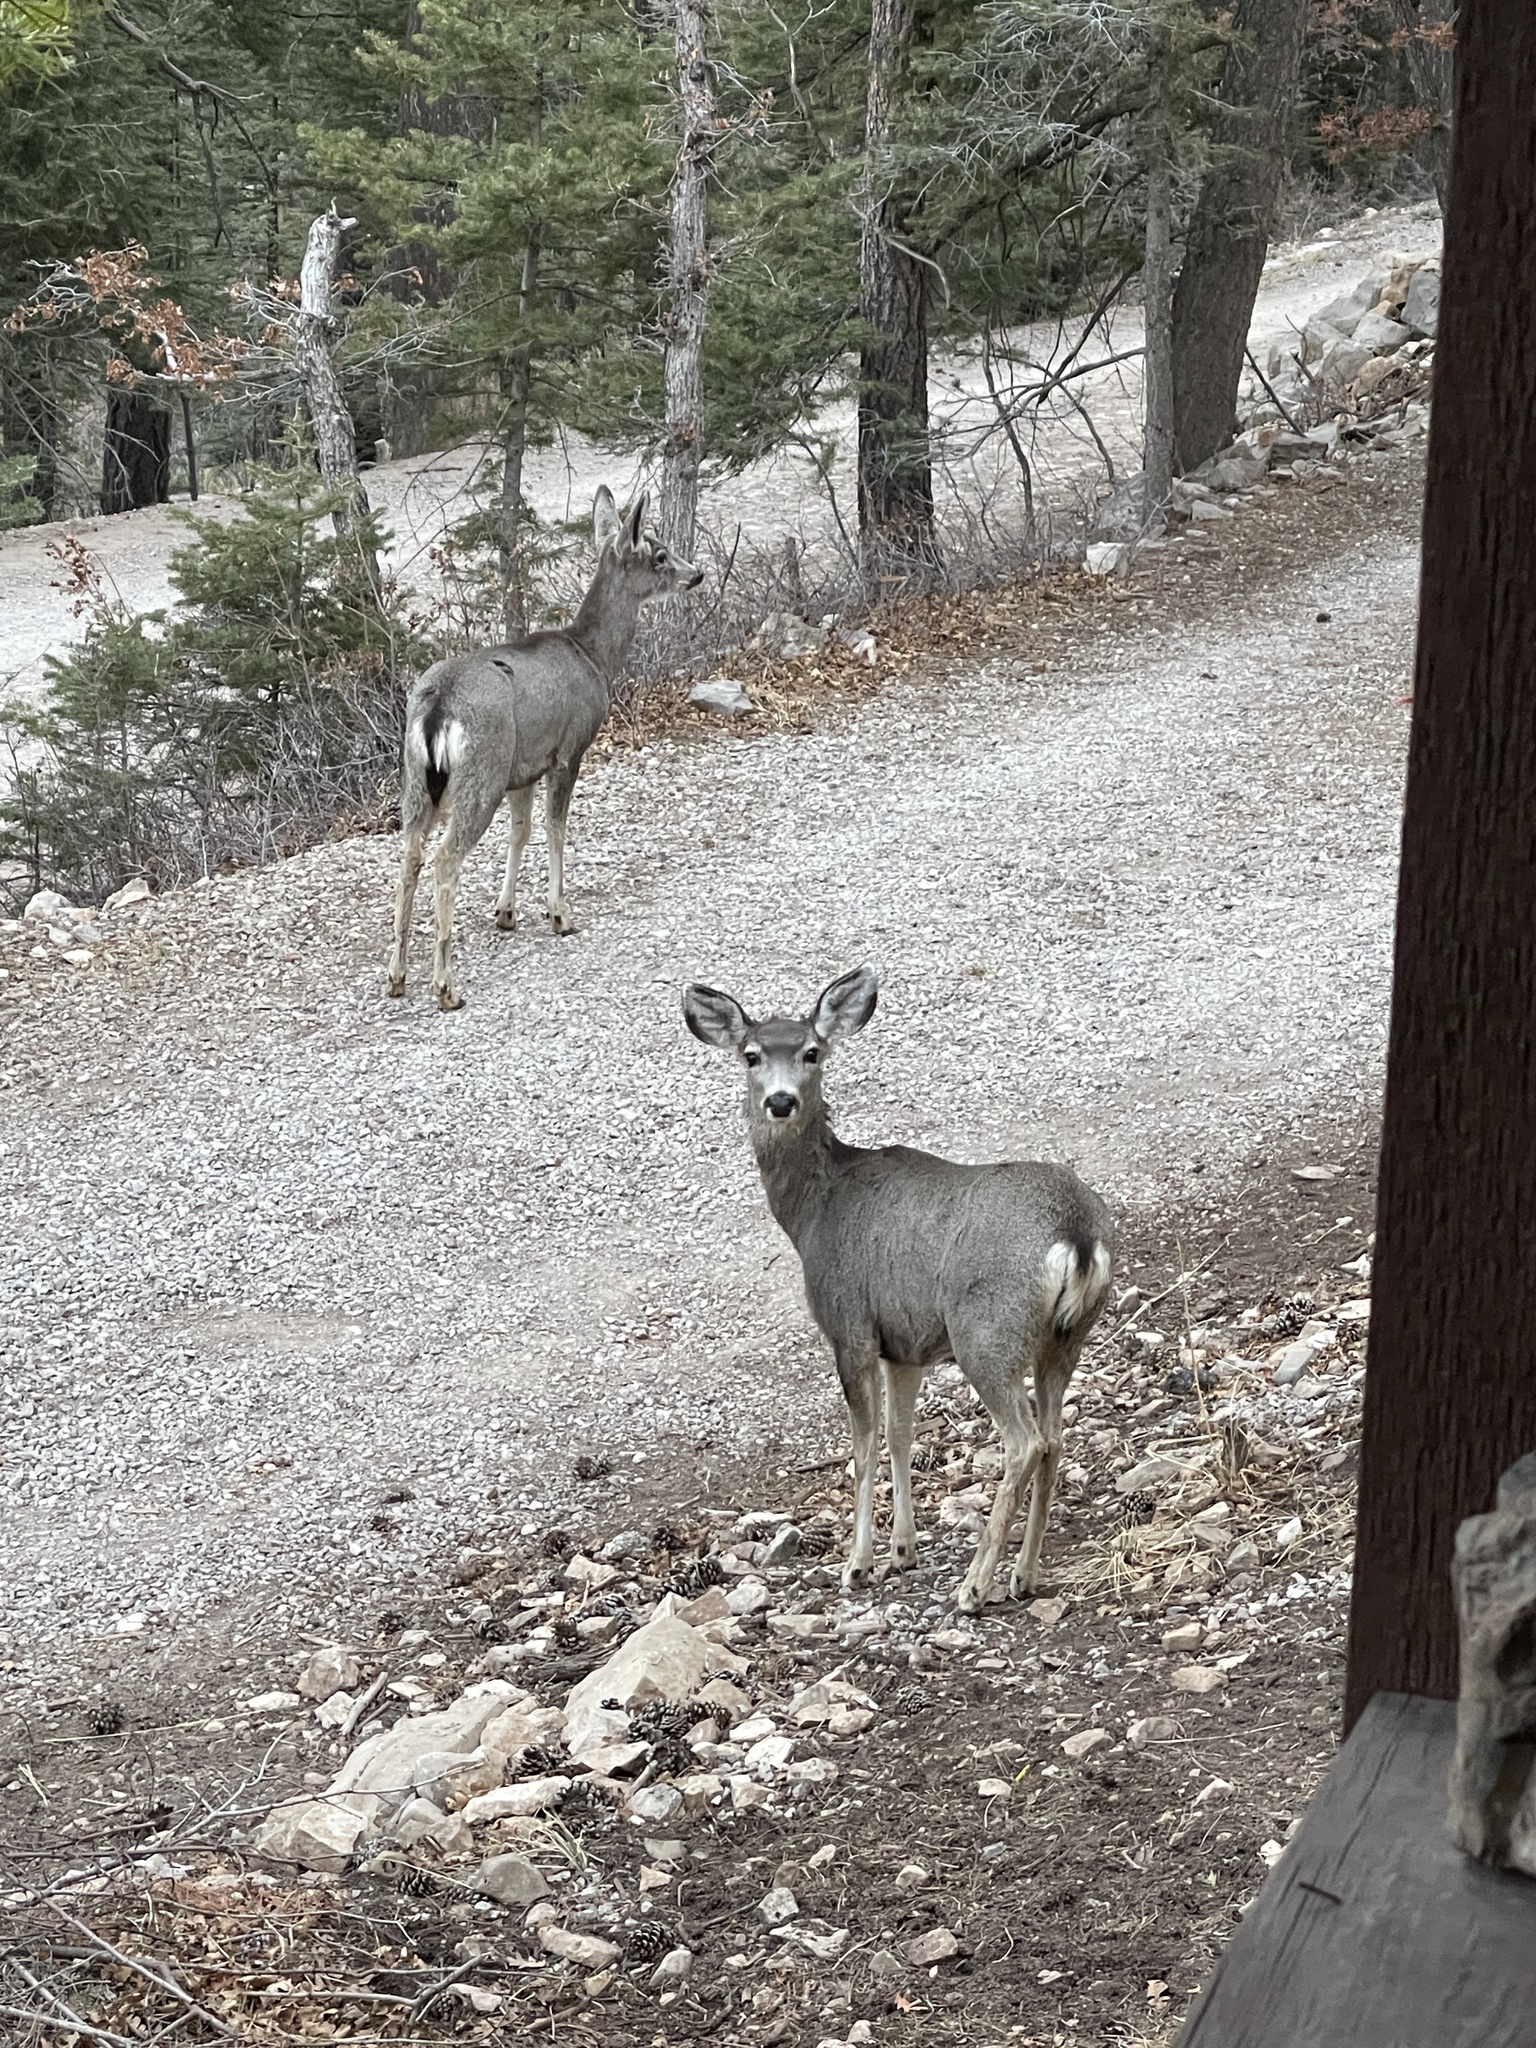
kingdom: Animalia
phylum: Chordata
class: Mammalia
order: Artiodactyla
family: Cervidae
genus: Odocoileus
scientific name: Odocoileus hemionus
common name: Mule deer
